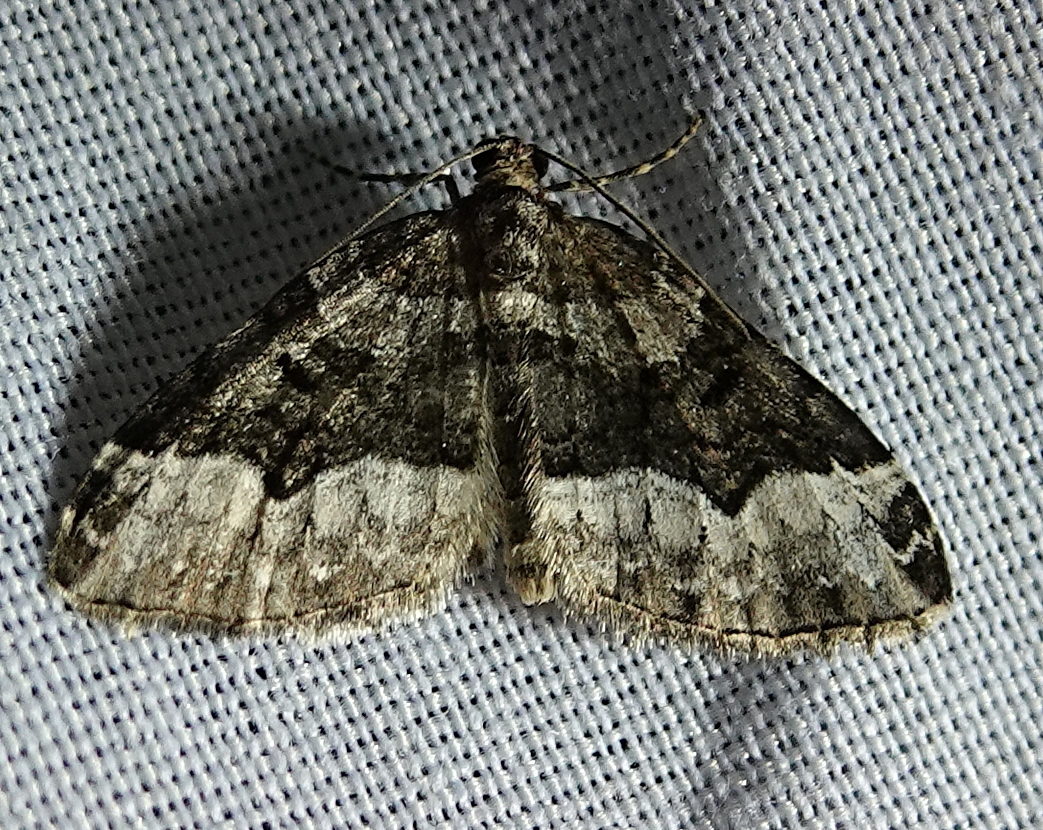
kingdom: Animalia
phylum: Arthropoda
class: Insecta
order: Lepidoptera
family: Geometridae
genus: Euphyia
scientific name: Euphyia intermediata
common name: Sharp-angled carpet
